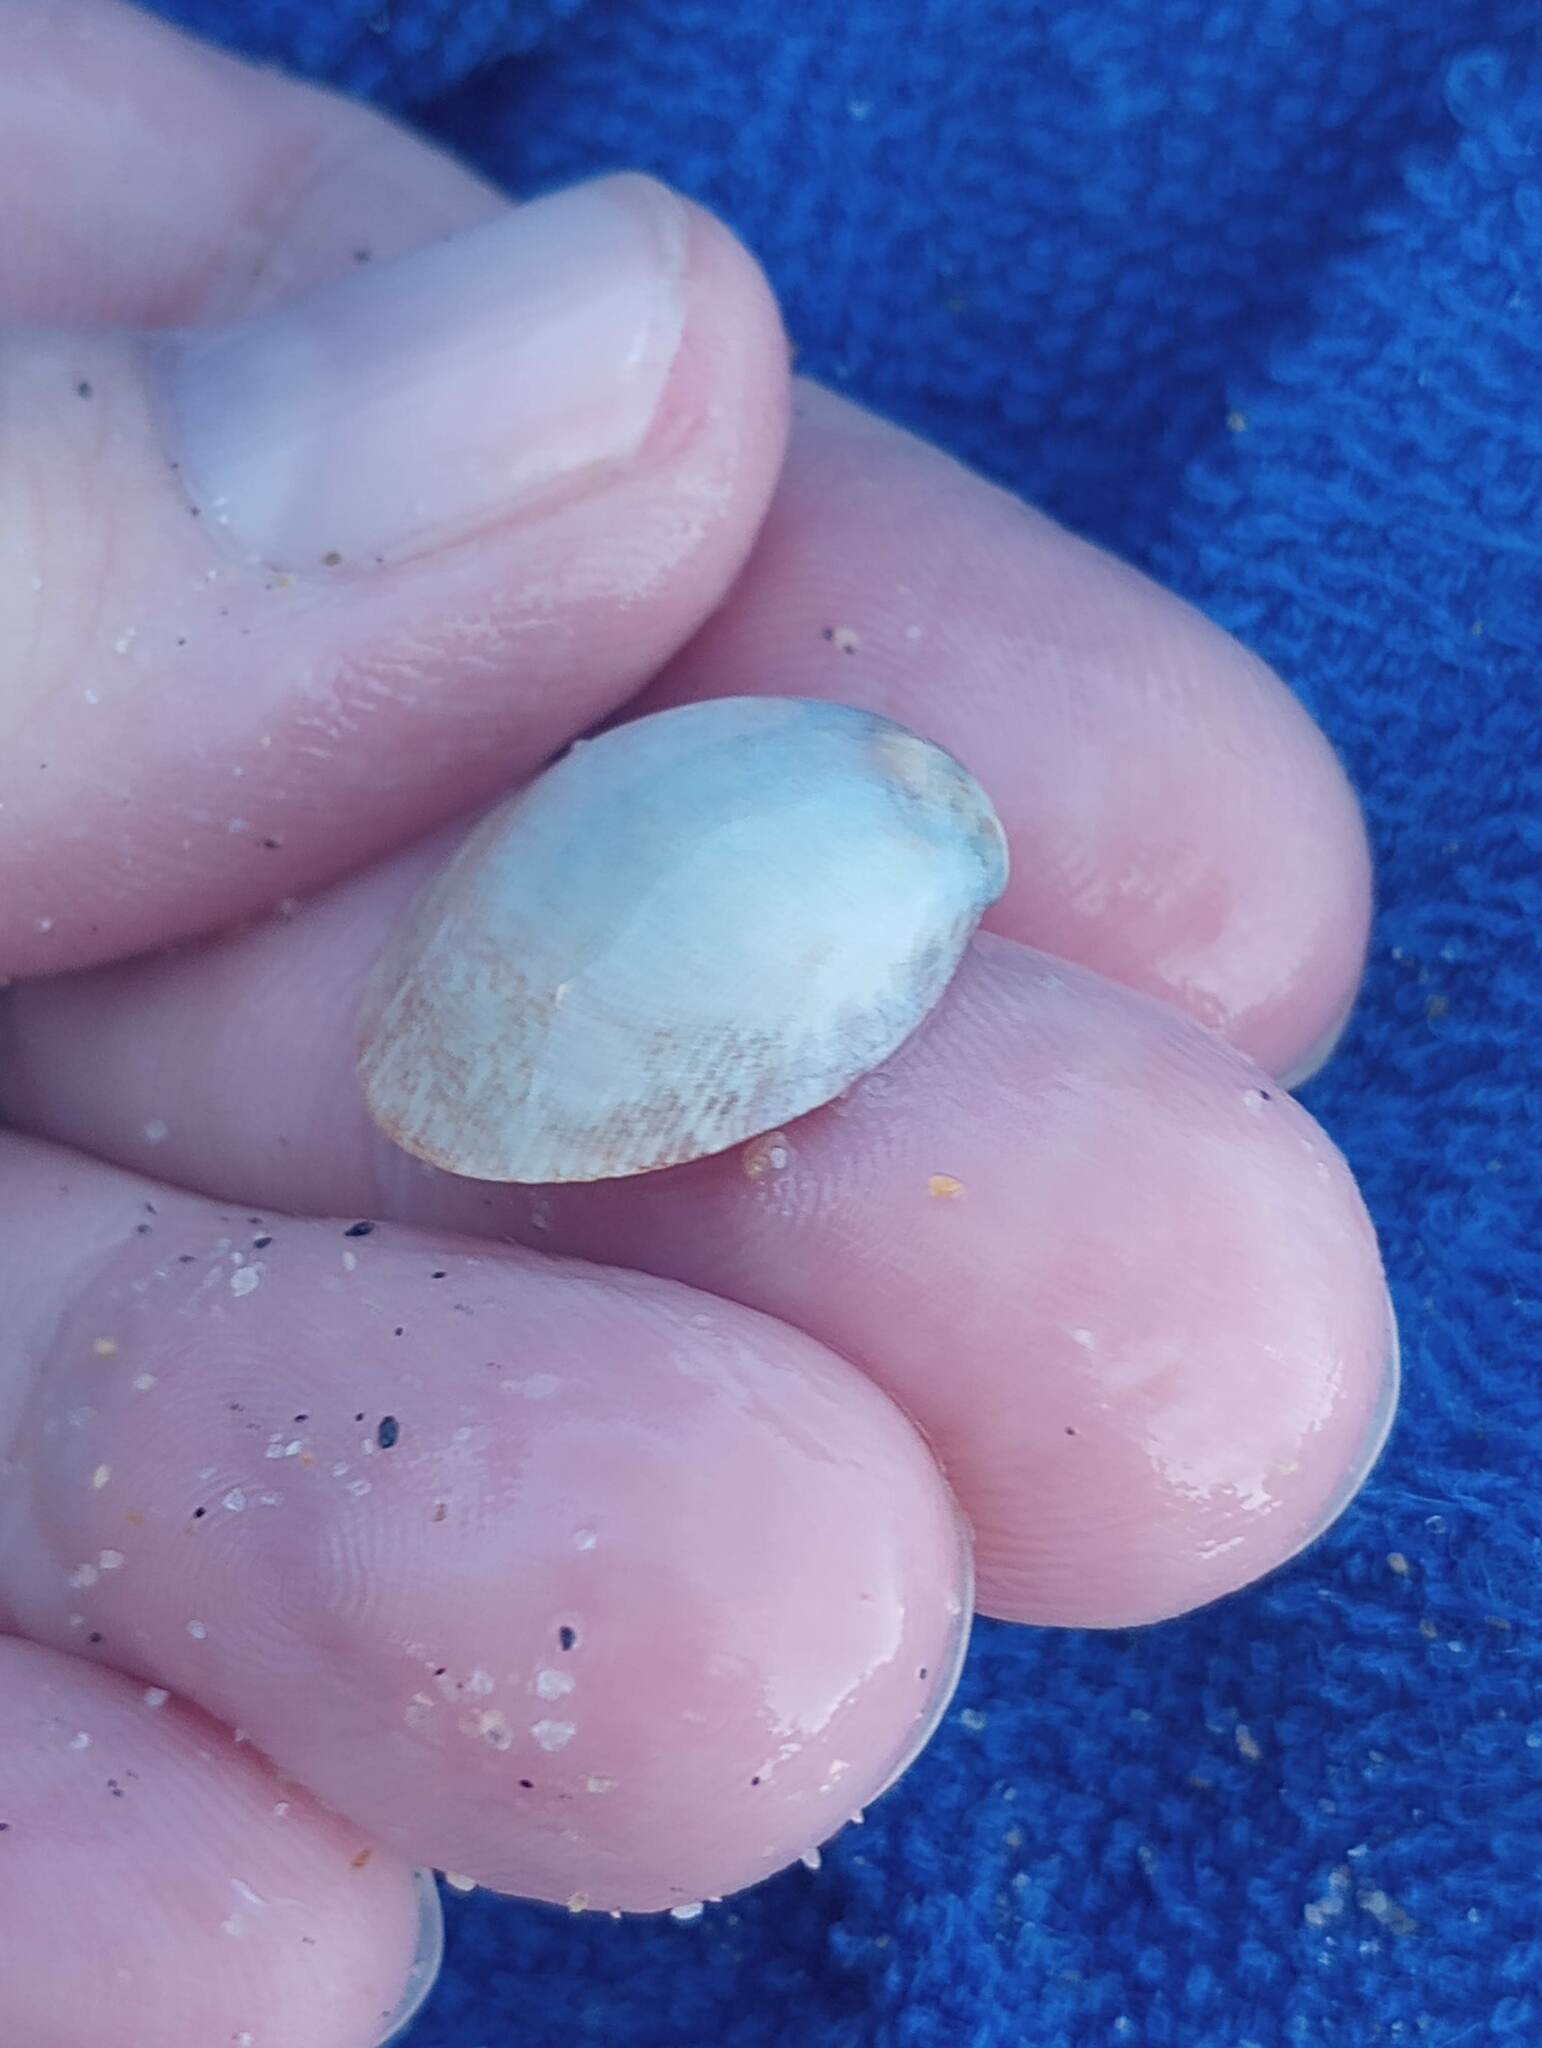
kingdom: Animalia
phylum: Mollusca
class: Bivalvia
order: Cardiida
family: Cardiidae
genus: Laevicardium
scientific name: Laevicardium substriatum
